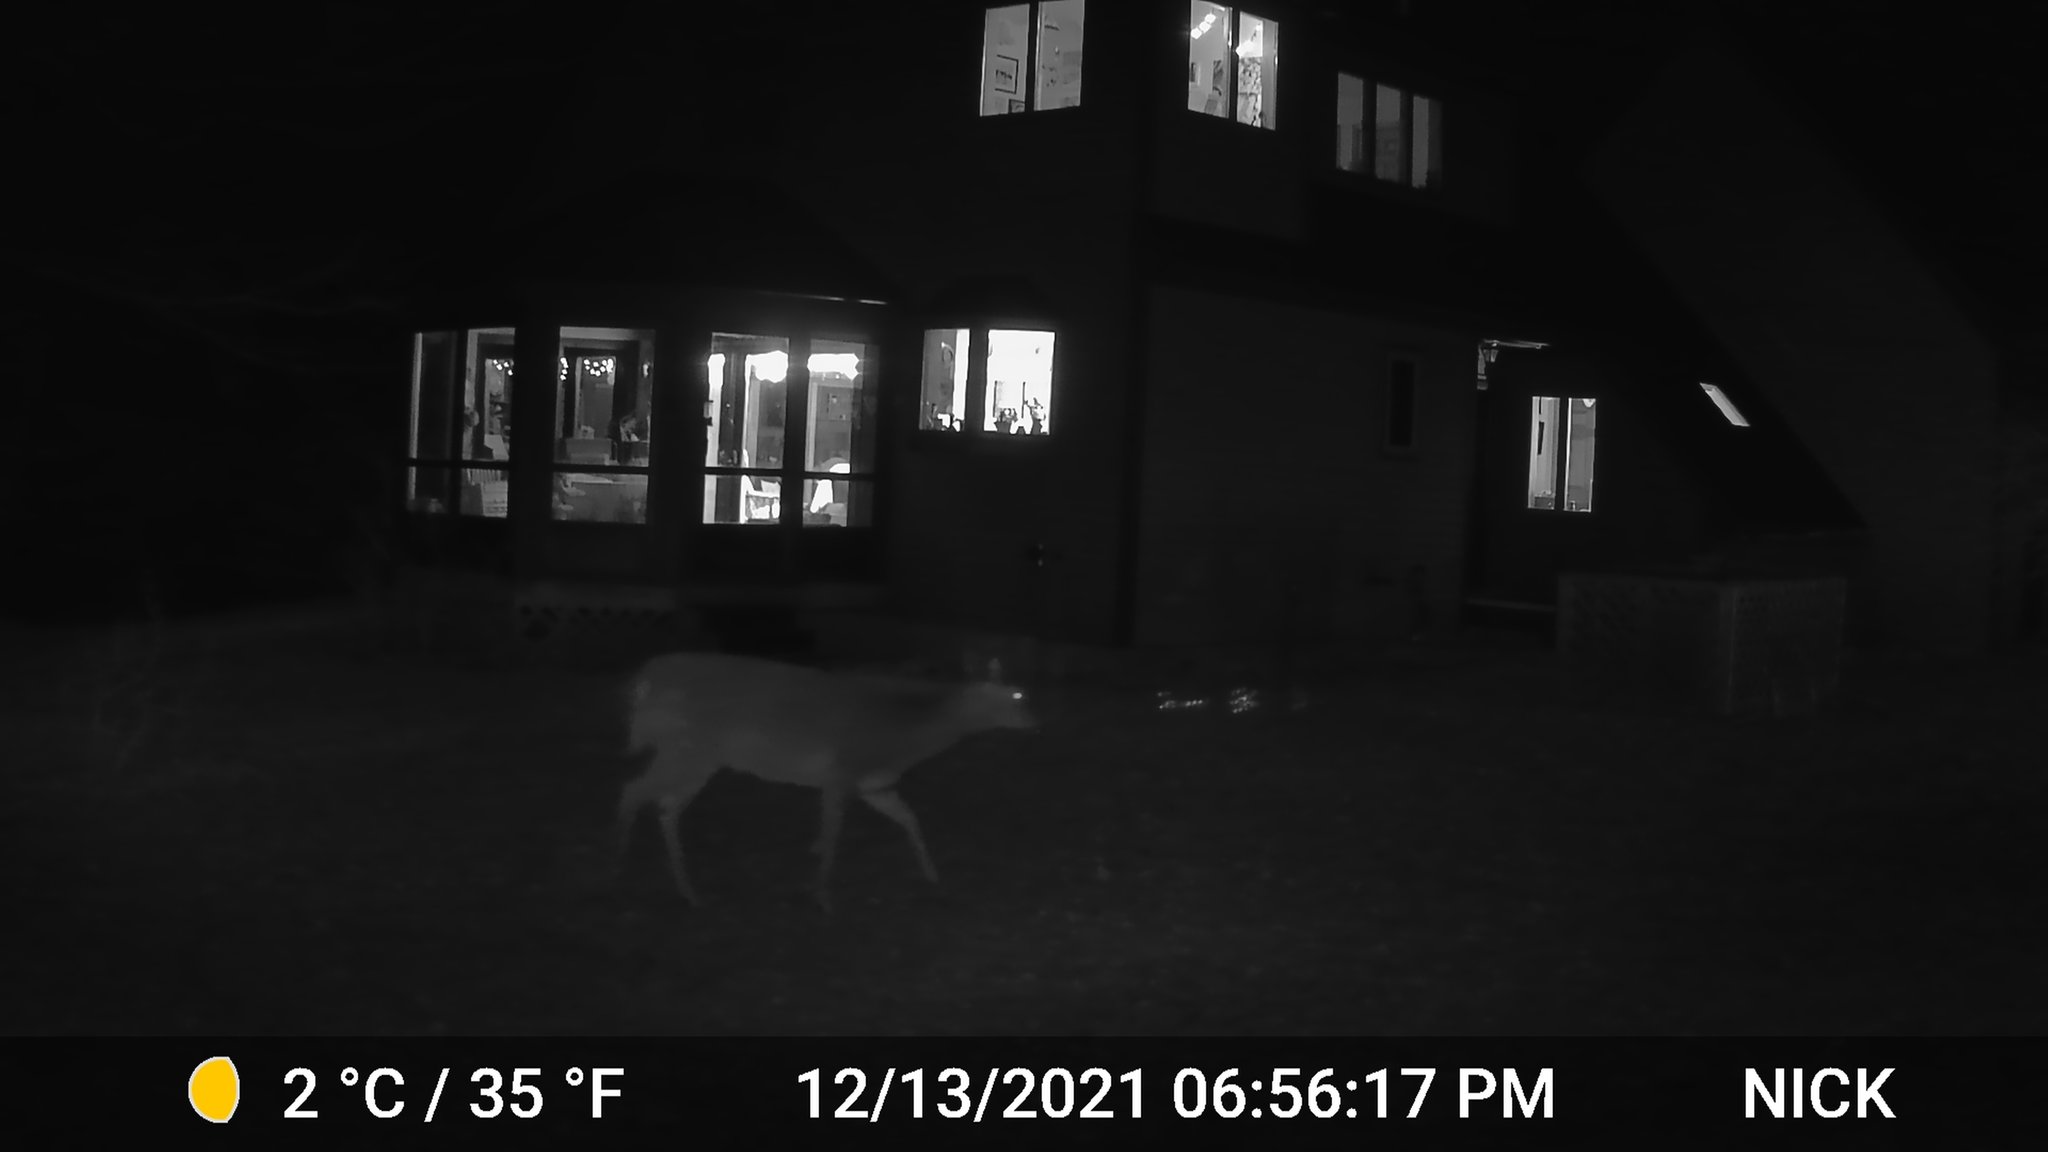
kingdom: Animalia
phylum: Chordata
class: Mammalia
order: Artiodactyla
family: Cervidae
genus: Odocoileus
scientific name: Odocoileus virginianus
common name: White-tailed deer
